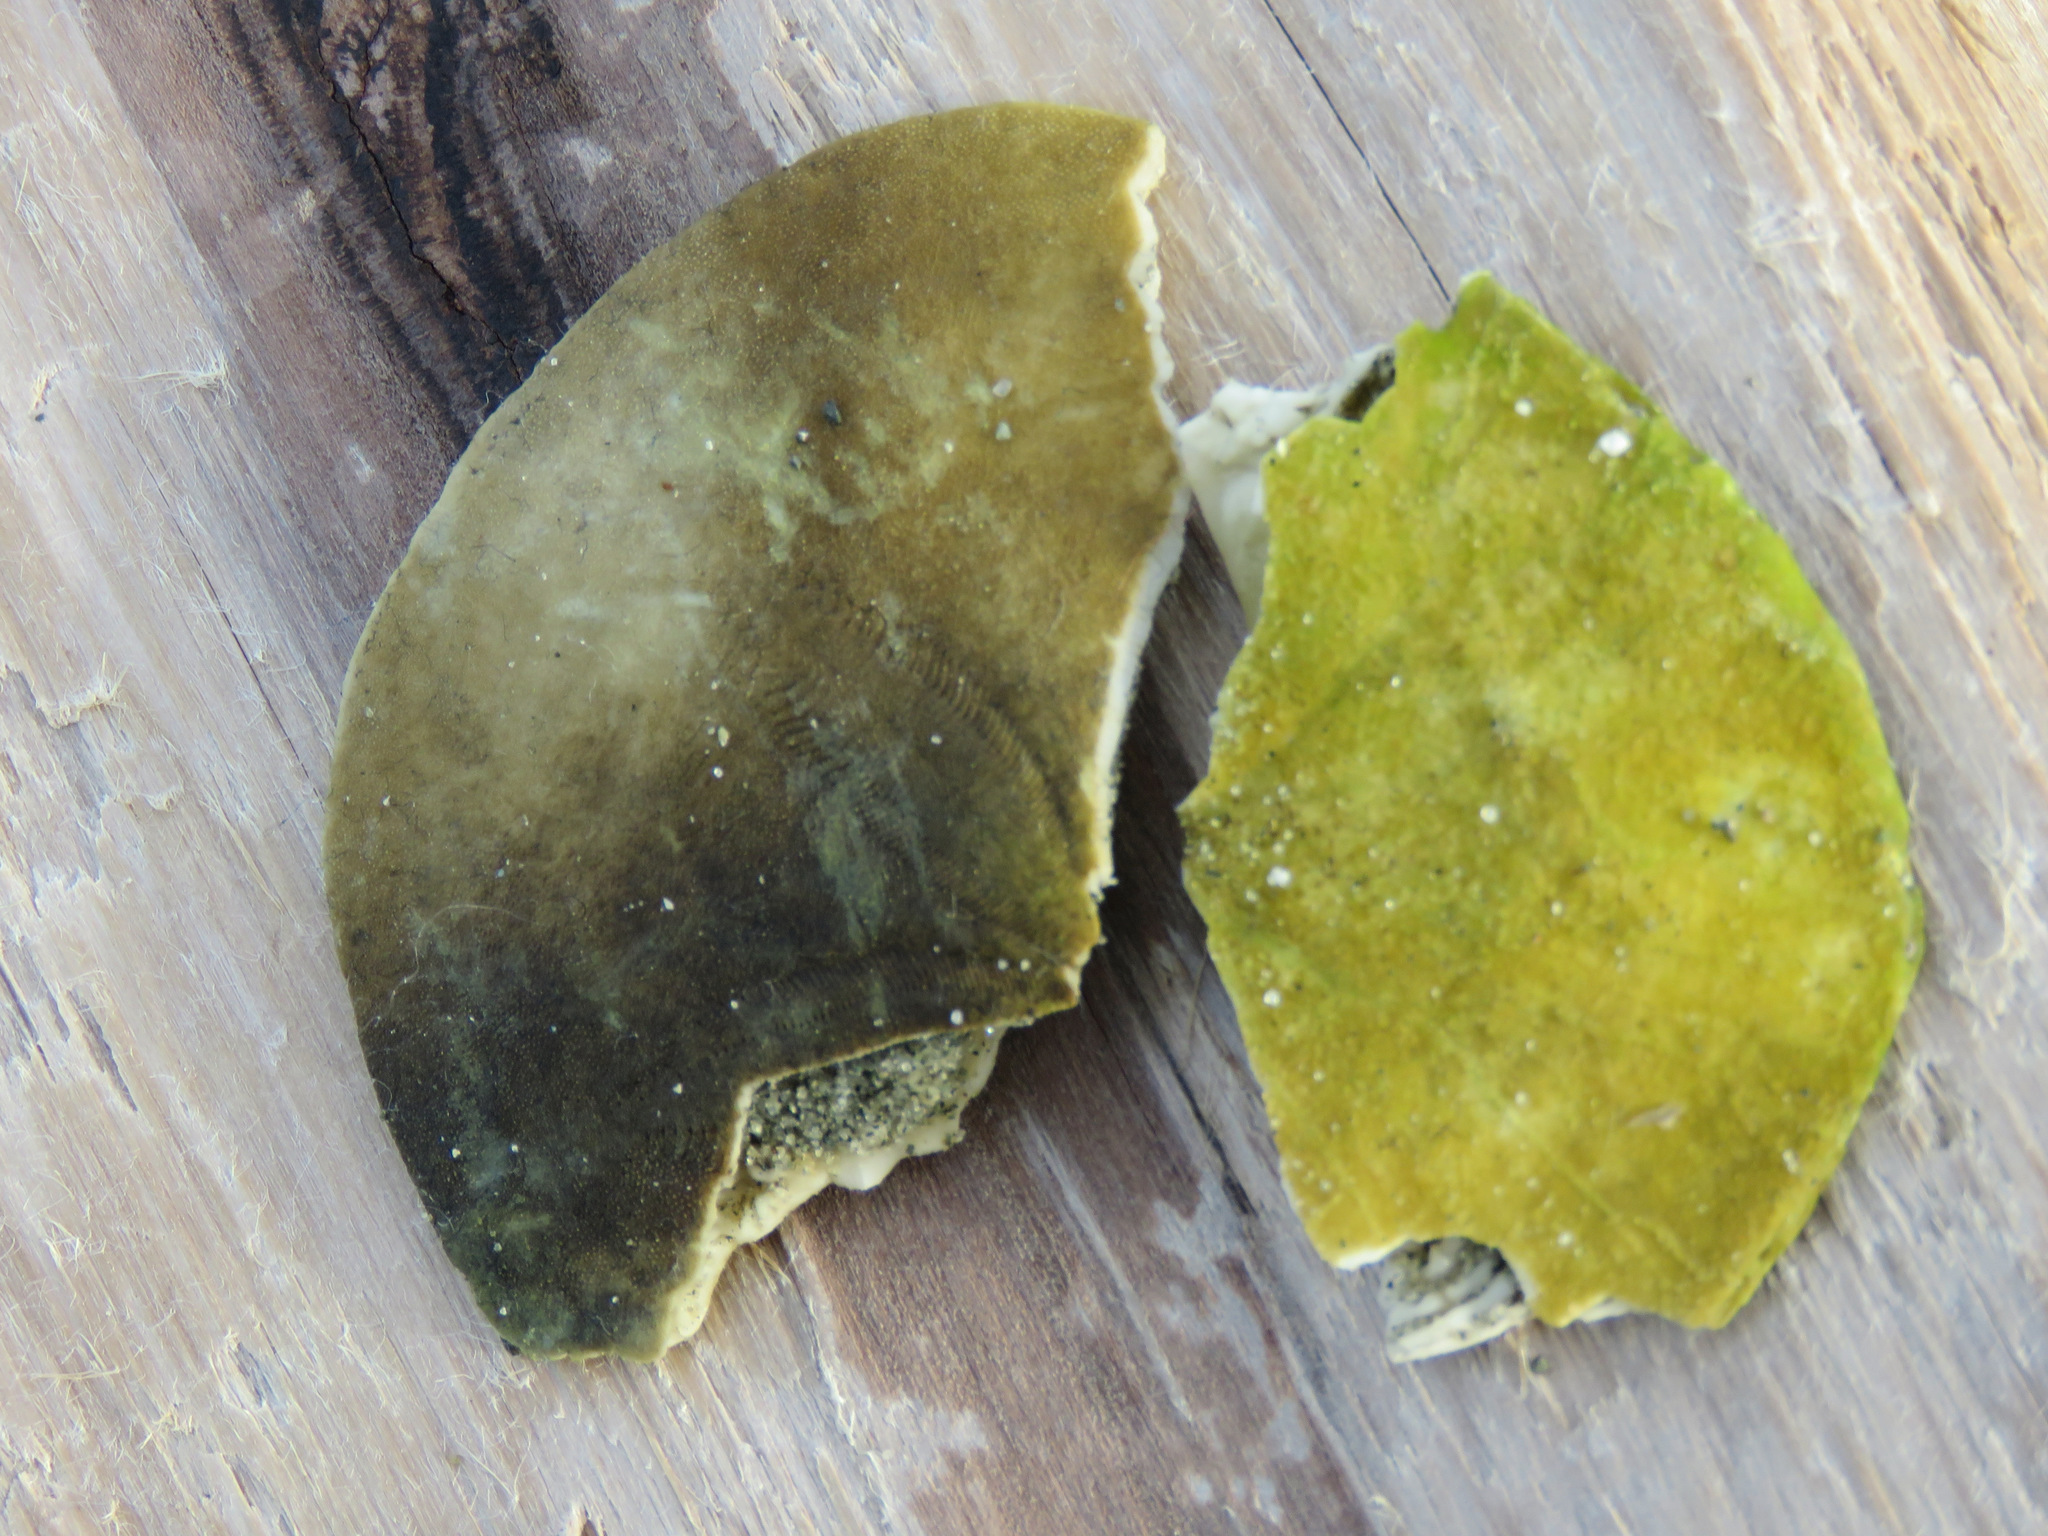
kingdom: Animalia
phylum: Echinodermata
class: Echinoidea
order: Echinolampadacea
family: Dendrasteridae
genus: Dendraster
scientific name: Dendraster excentricus
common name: Eccentric sand dollar sea urchin
